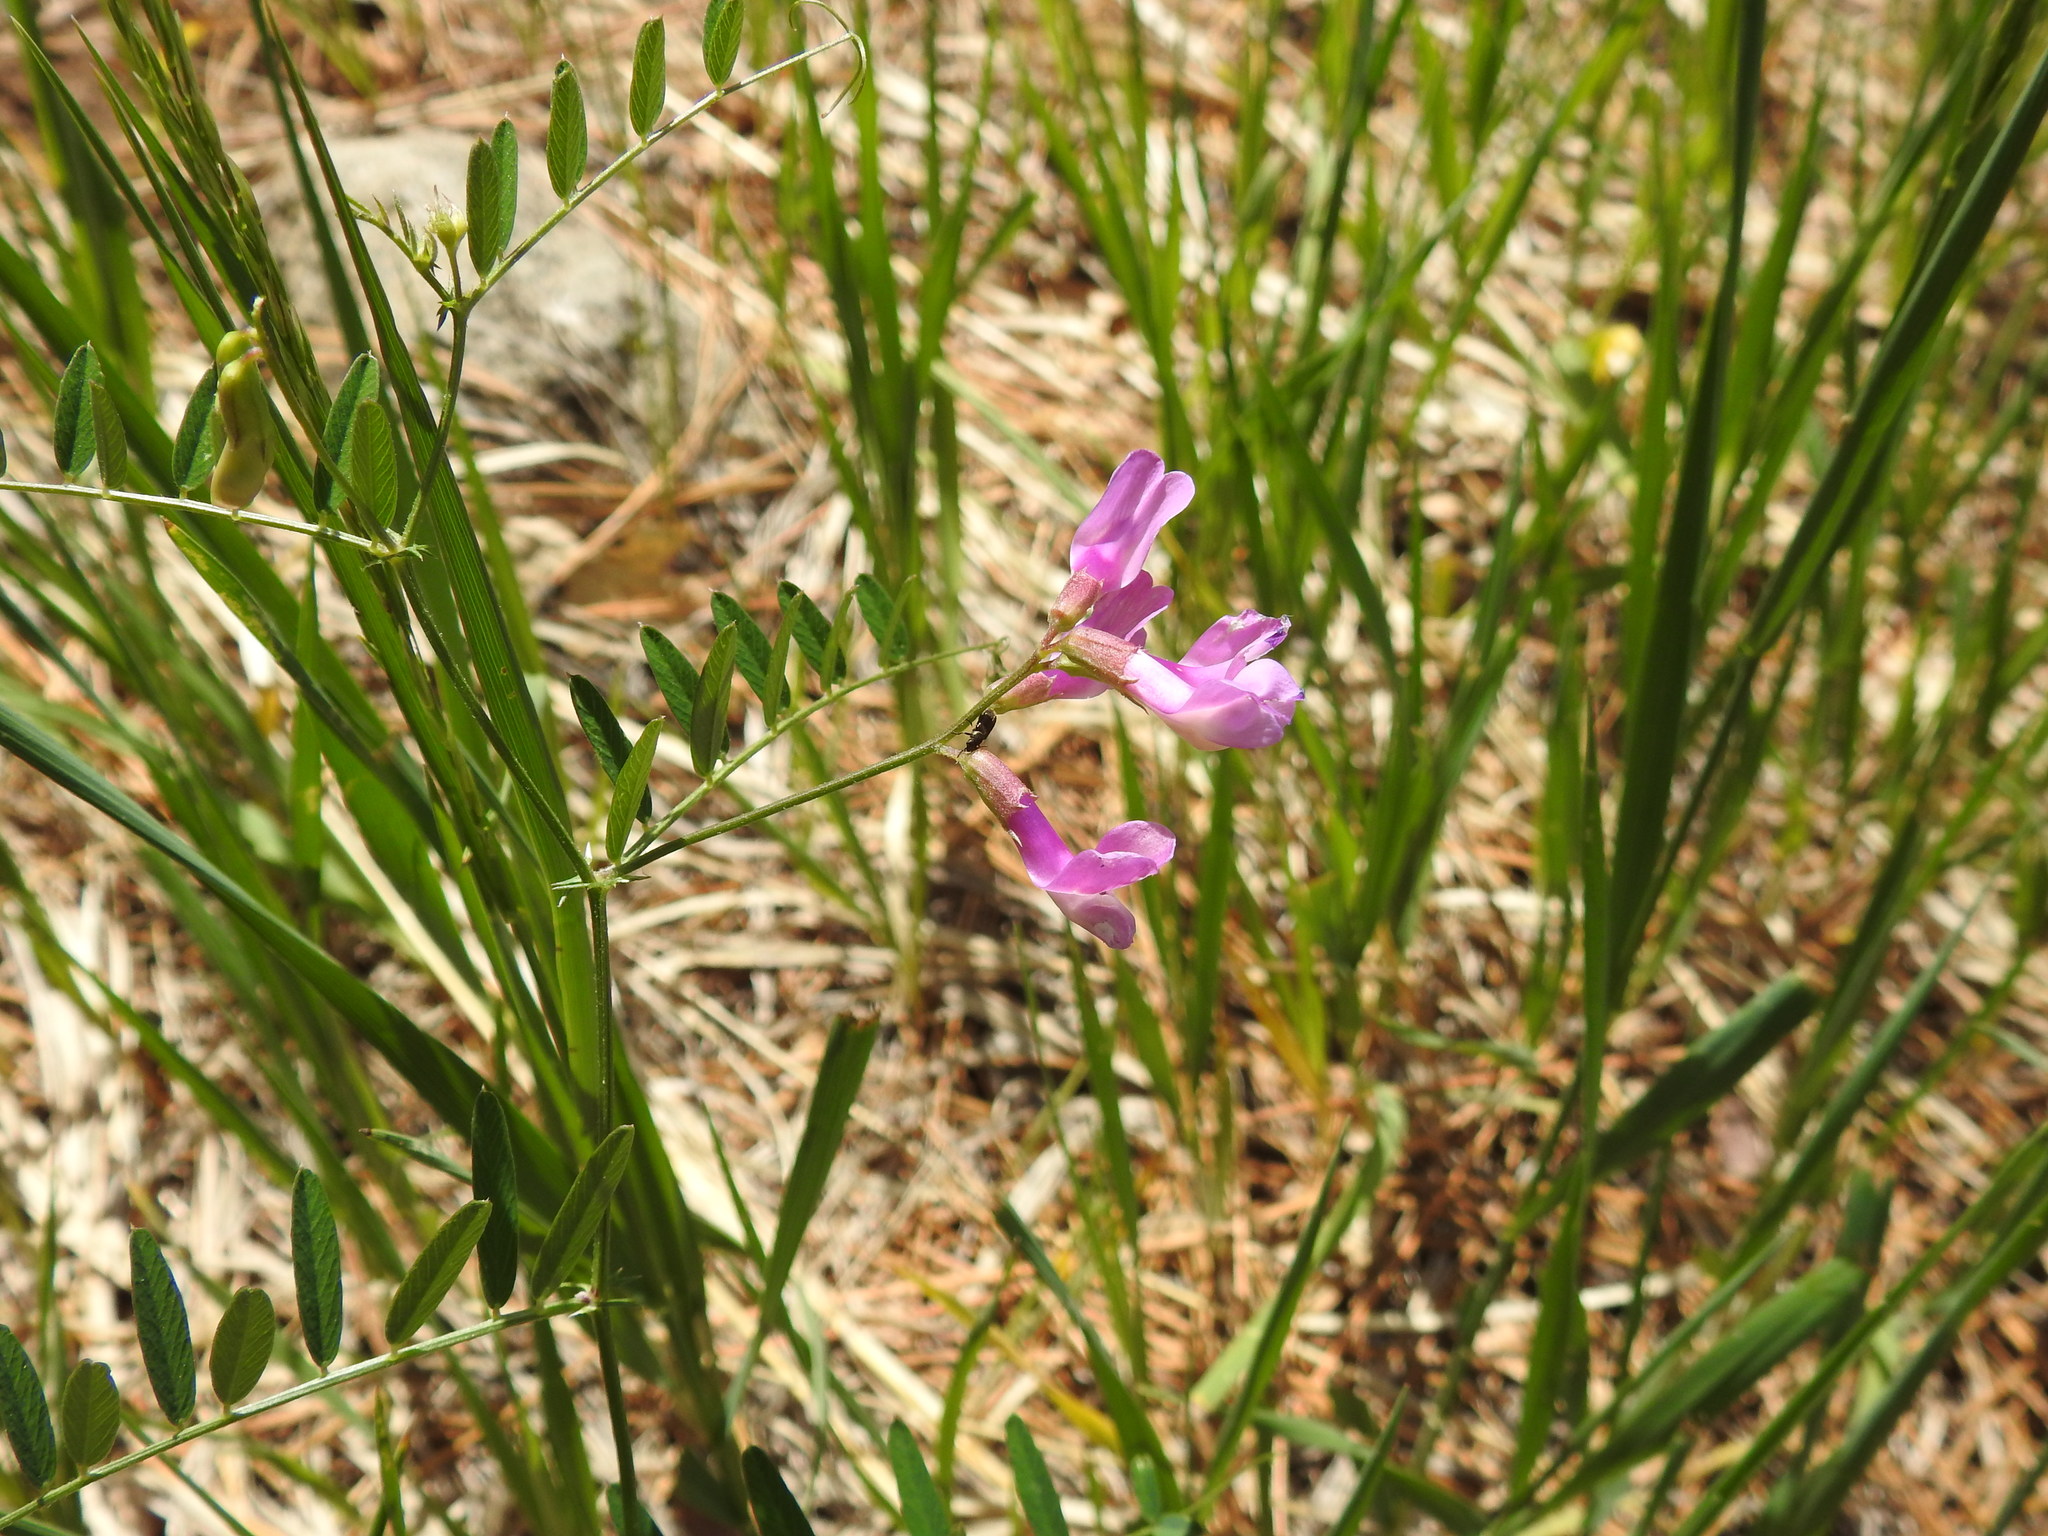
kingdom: Plantae
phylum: Tracheophyta
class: Magnoliopsida
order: Fabales
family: Fabaceae
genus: Vicia
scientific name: Vicia americana
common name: American vetch
